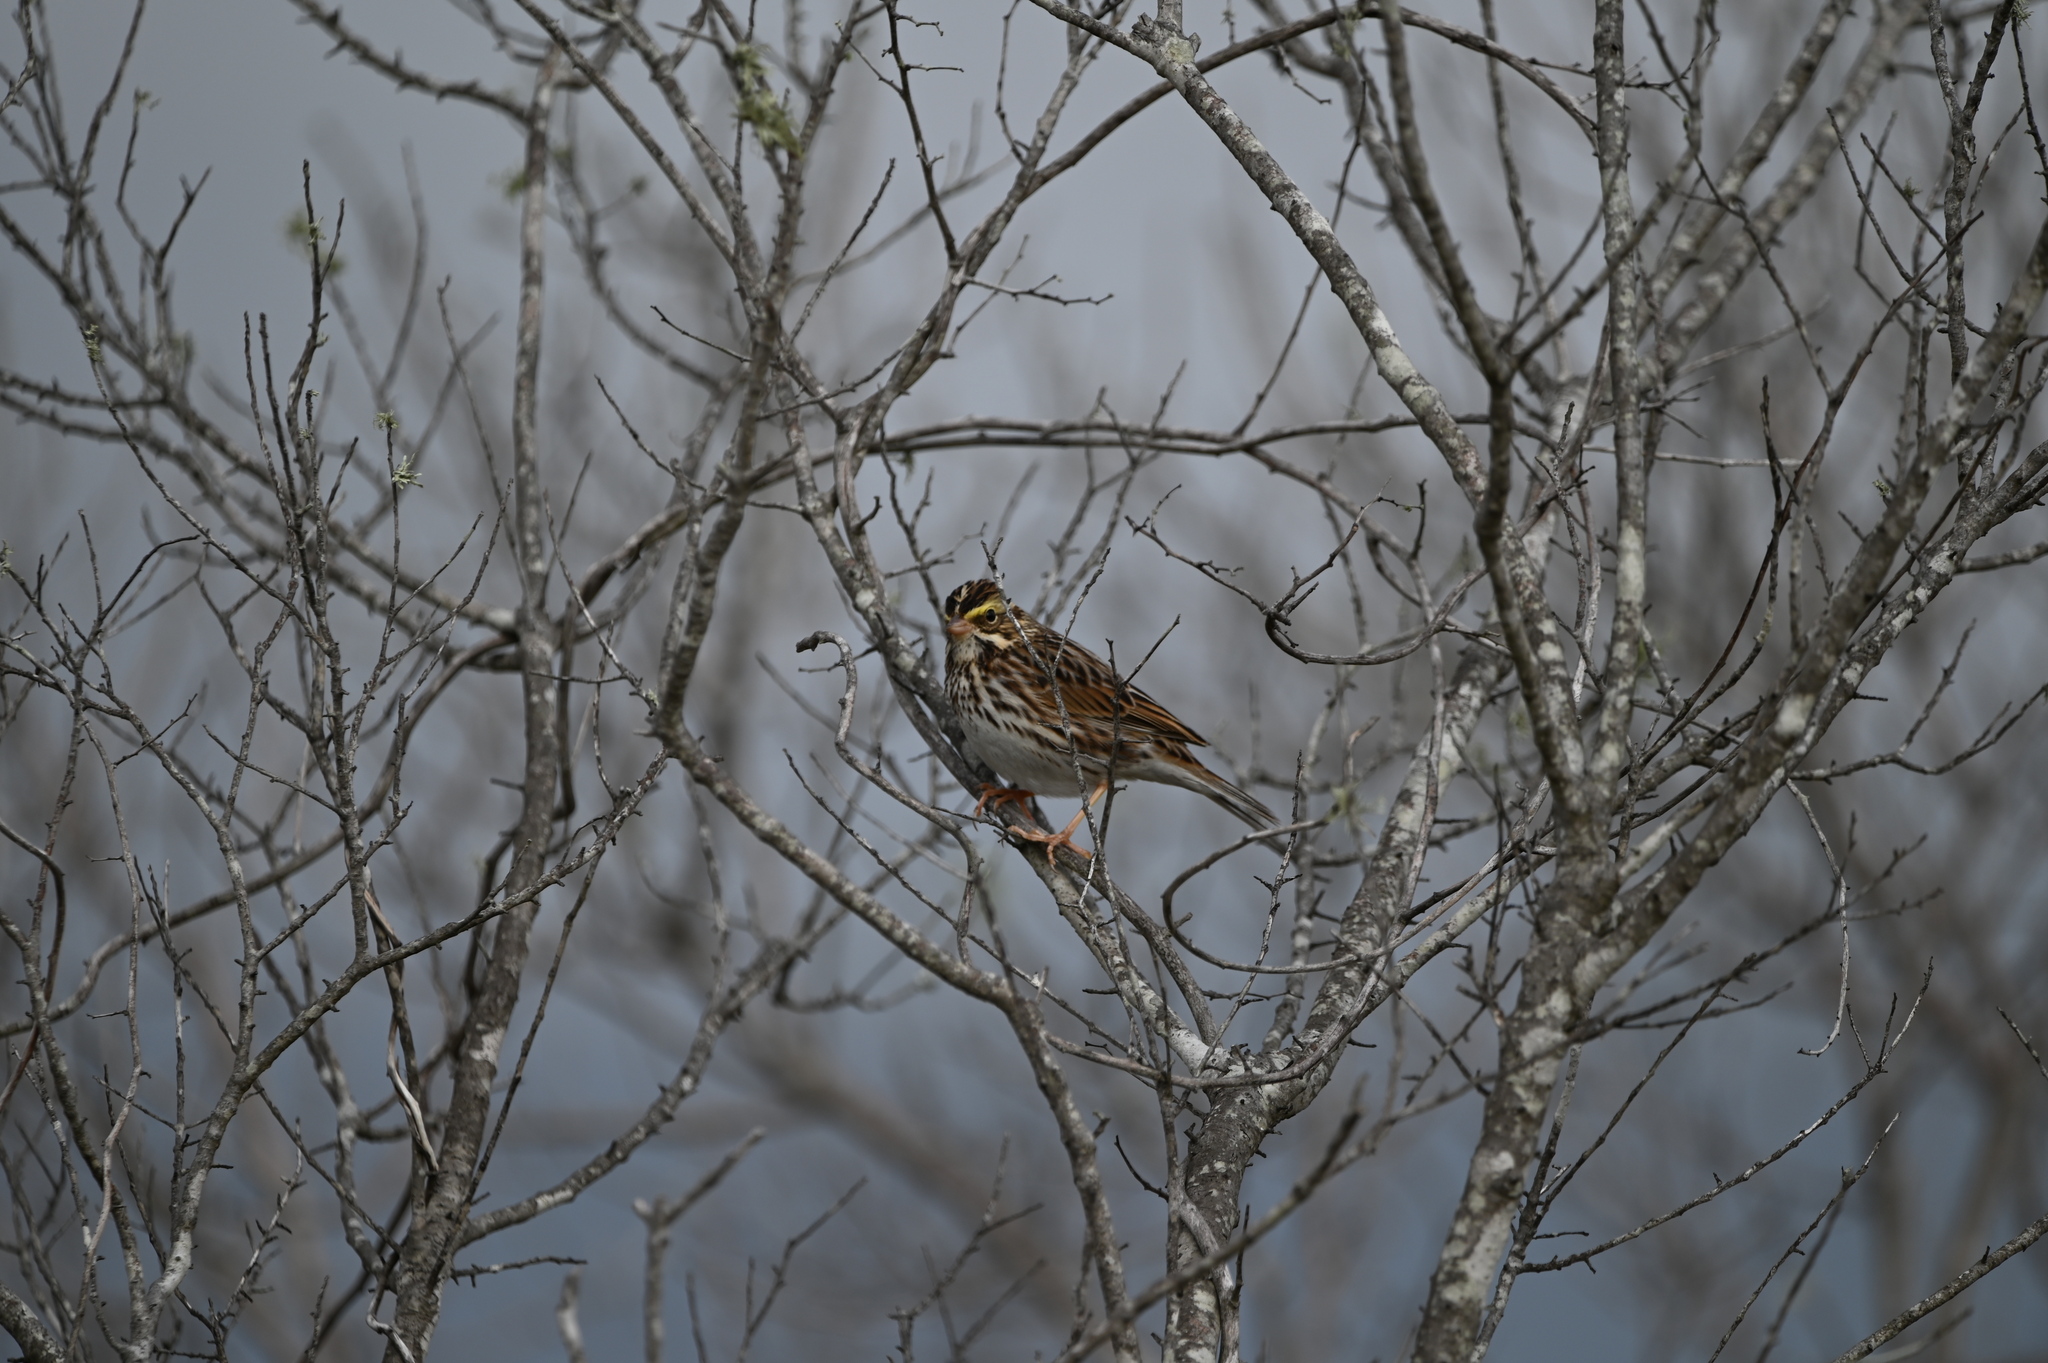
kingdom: Animalia
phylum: Chordata
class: Aves
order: Passeriformes
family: Passerellidae
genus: Passerculus
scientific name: Passerculus sandwichensis
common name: Savannah sparrow
